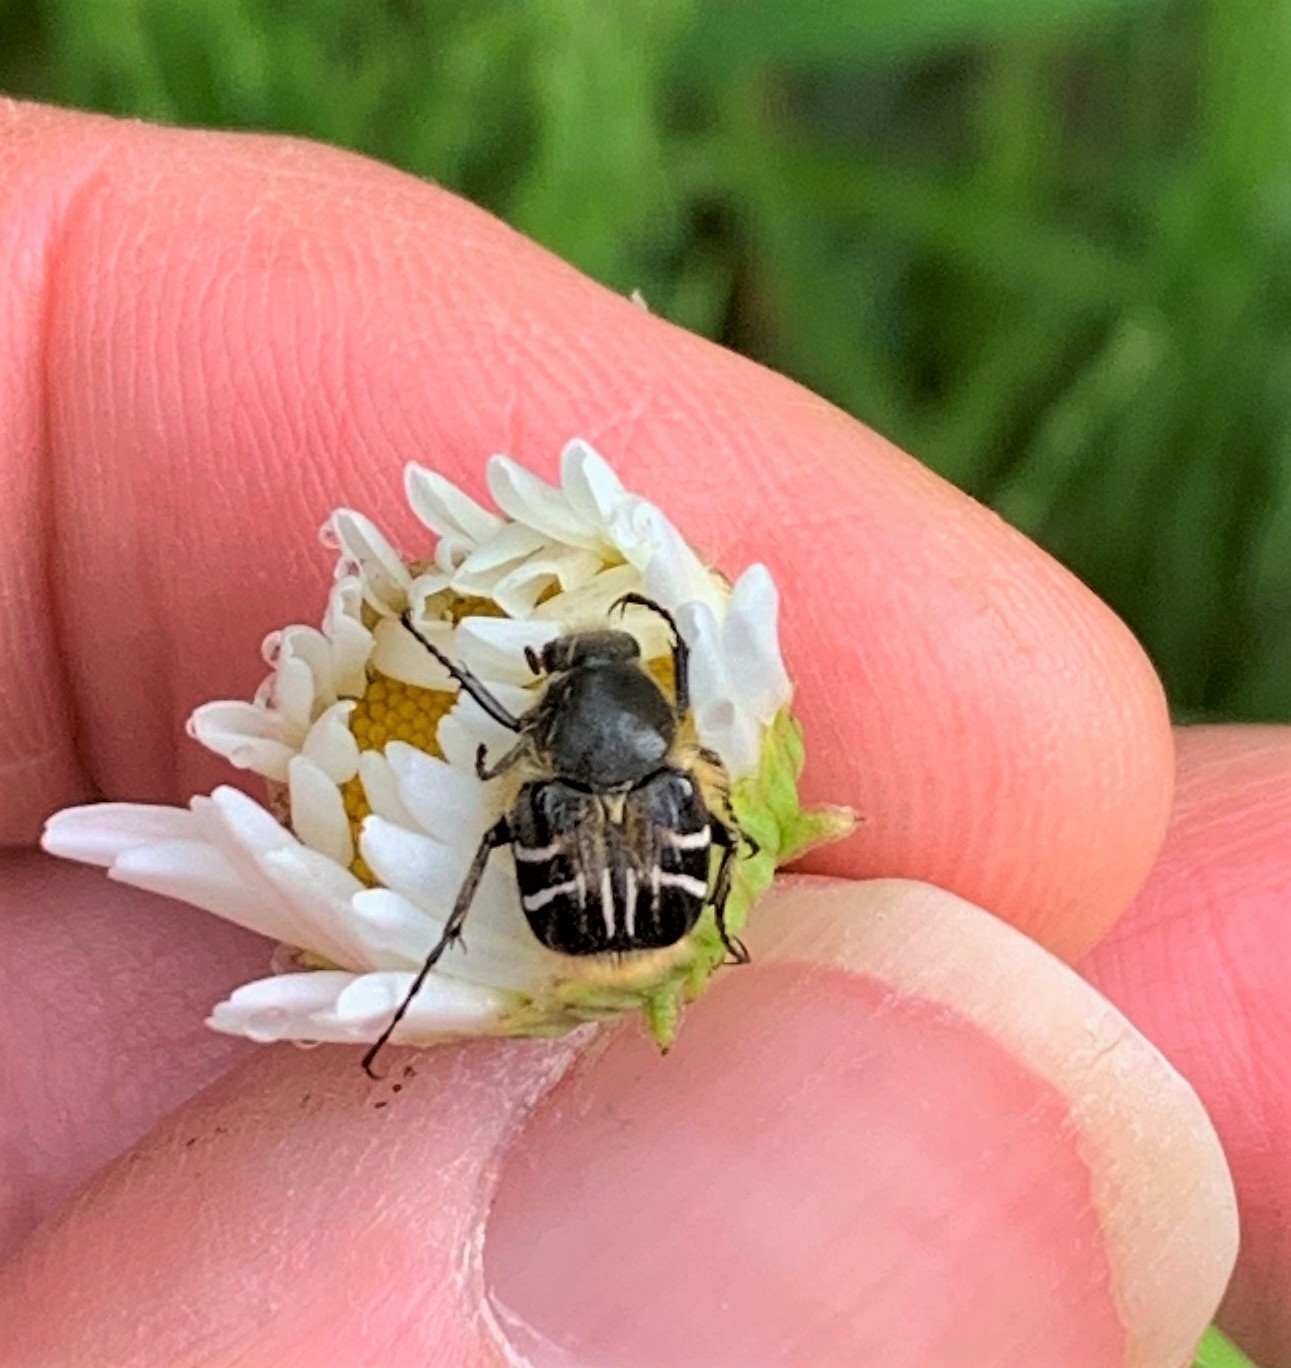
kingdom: Animalia
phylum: Arthropoda
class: Insecta
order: Coleoptera
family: Scarabaeidae
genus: Trichiotinus
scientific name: Trichiotinus assimilis
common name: Bee-mimic beetle
